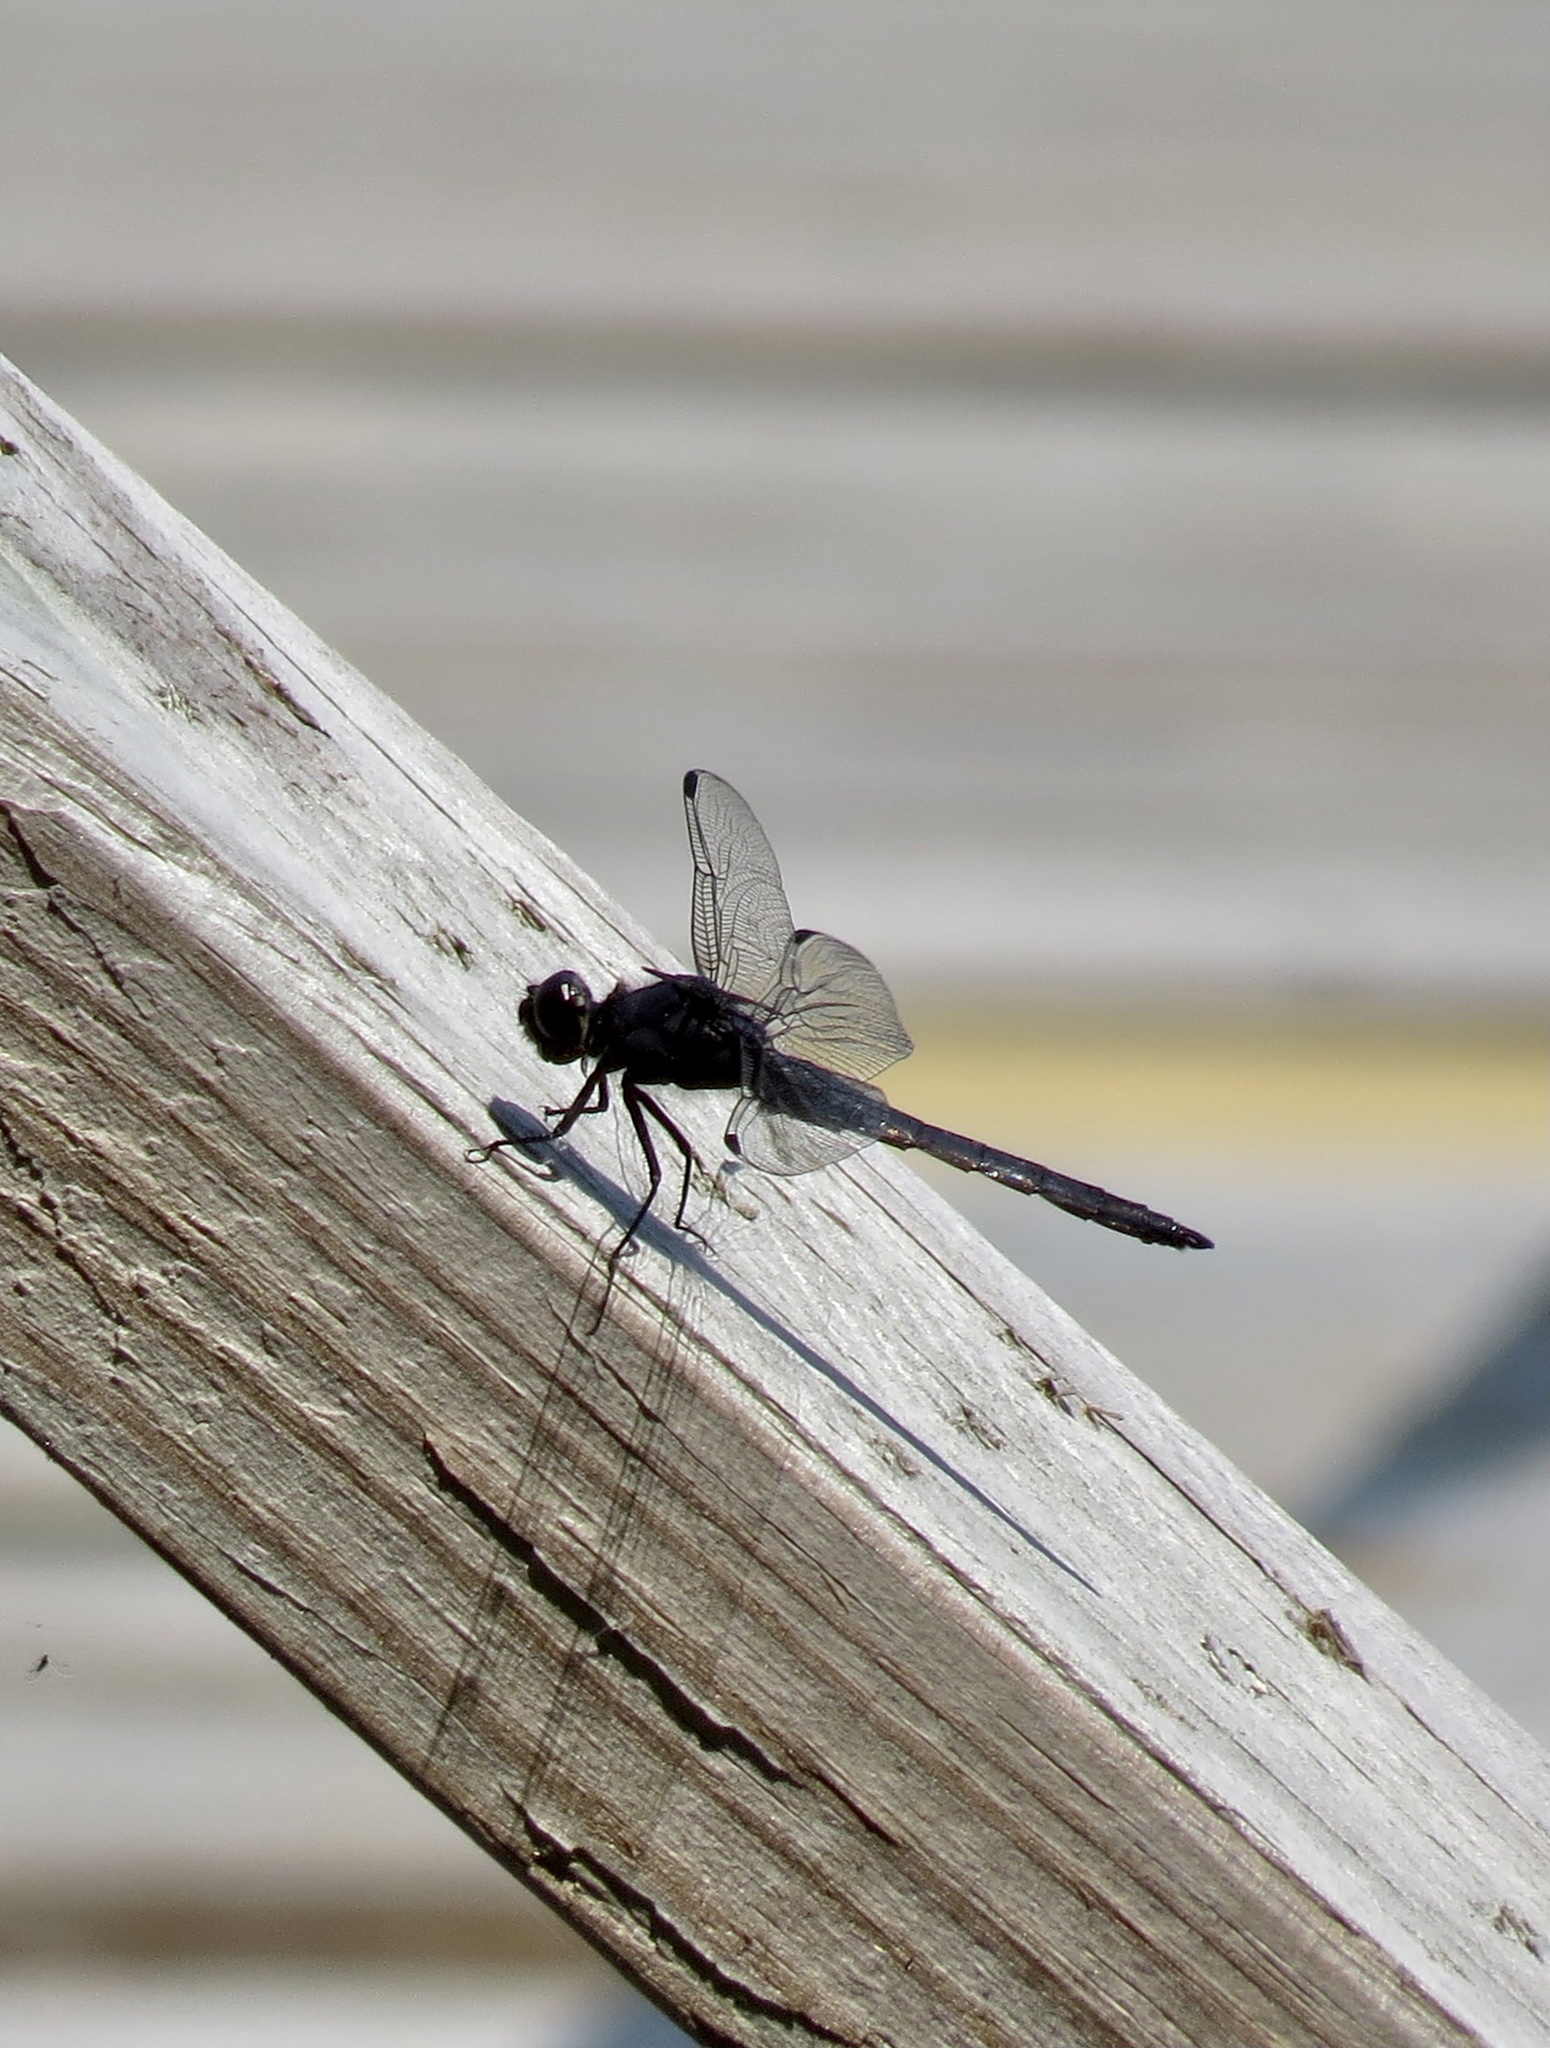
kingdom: Animalia
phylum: Arthropoda
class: Insecta
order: Odonata
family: Libellulidae
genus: Libellula
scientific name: Libellula incesta
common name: Slaty skimmer
